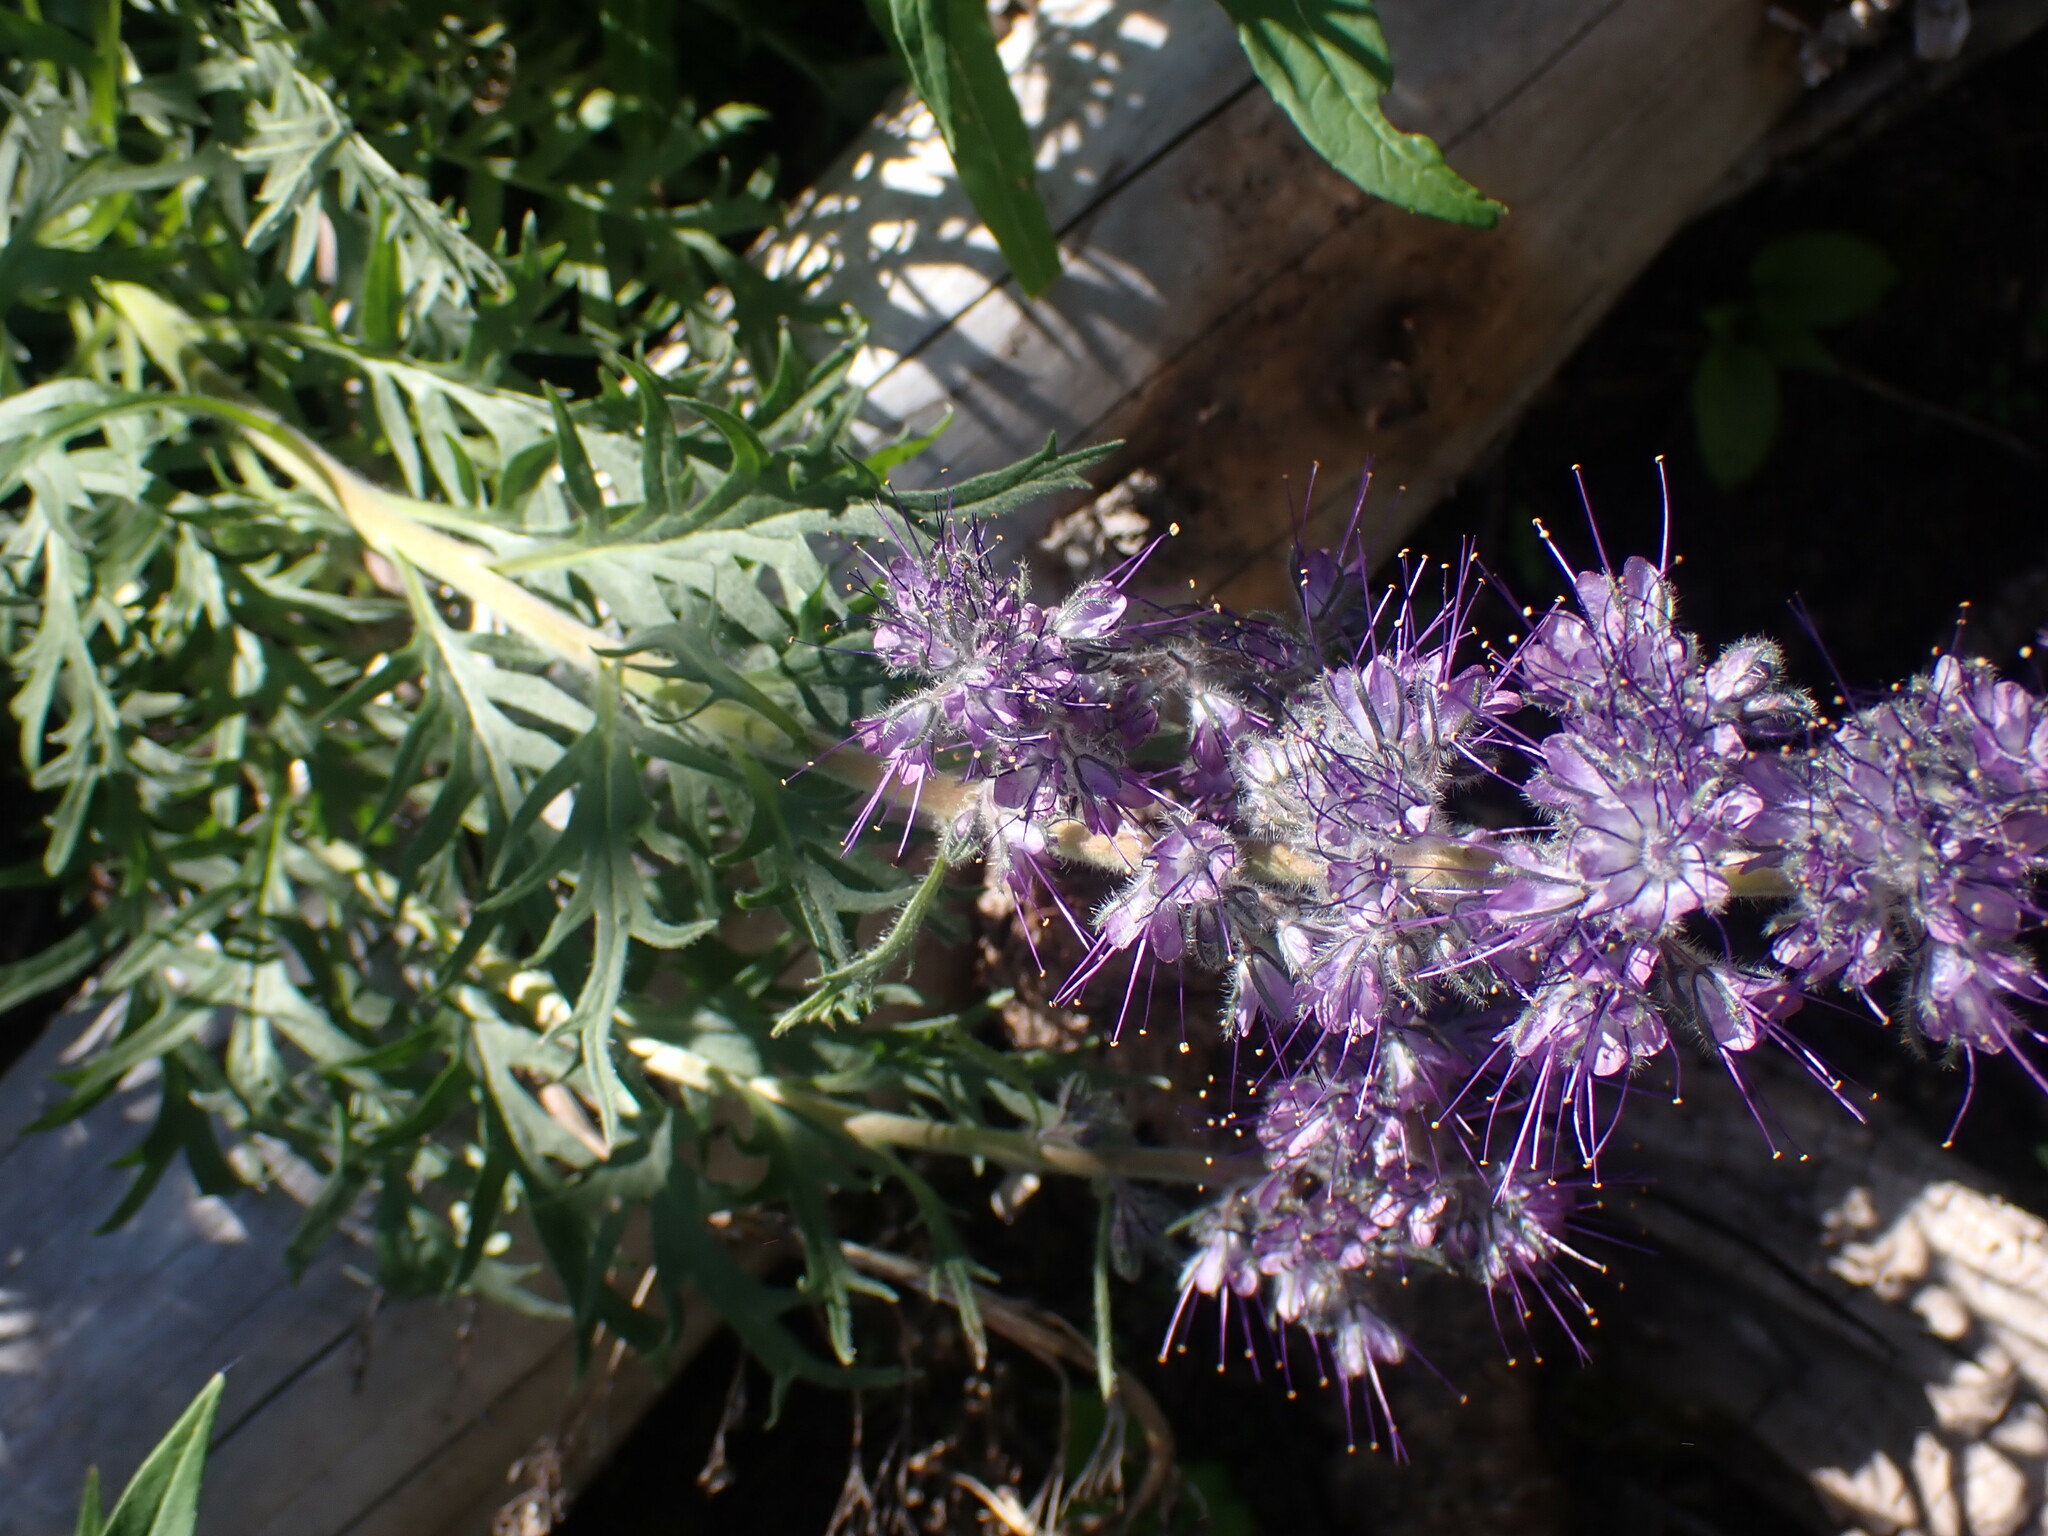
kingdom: Plantae
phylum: Tracheophyta
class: Magnoliopsida
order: Boraginales
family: Hydrophyllaceae
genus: Phacelia
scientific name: Phacelia sericea
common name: Silky phacelia
